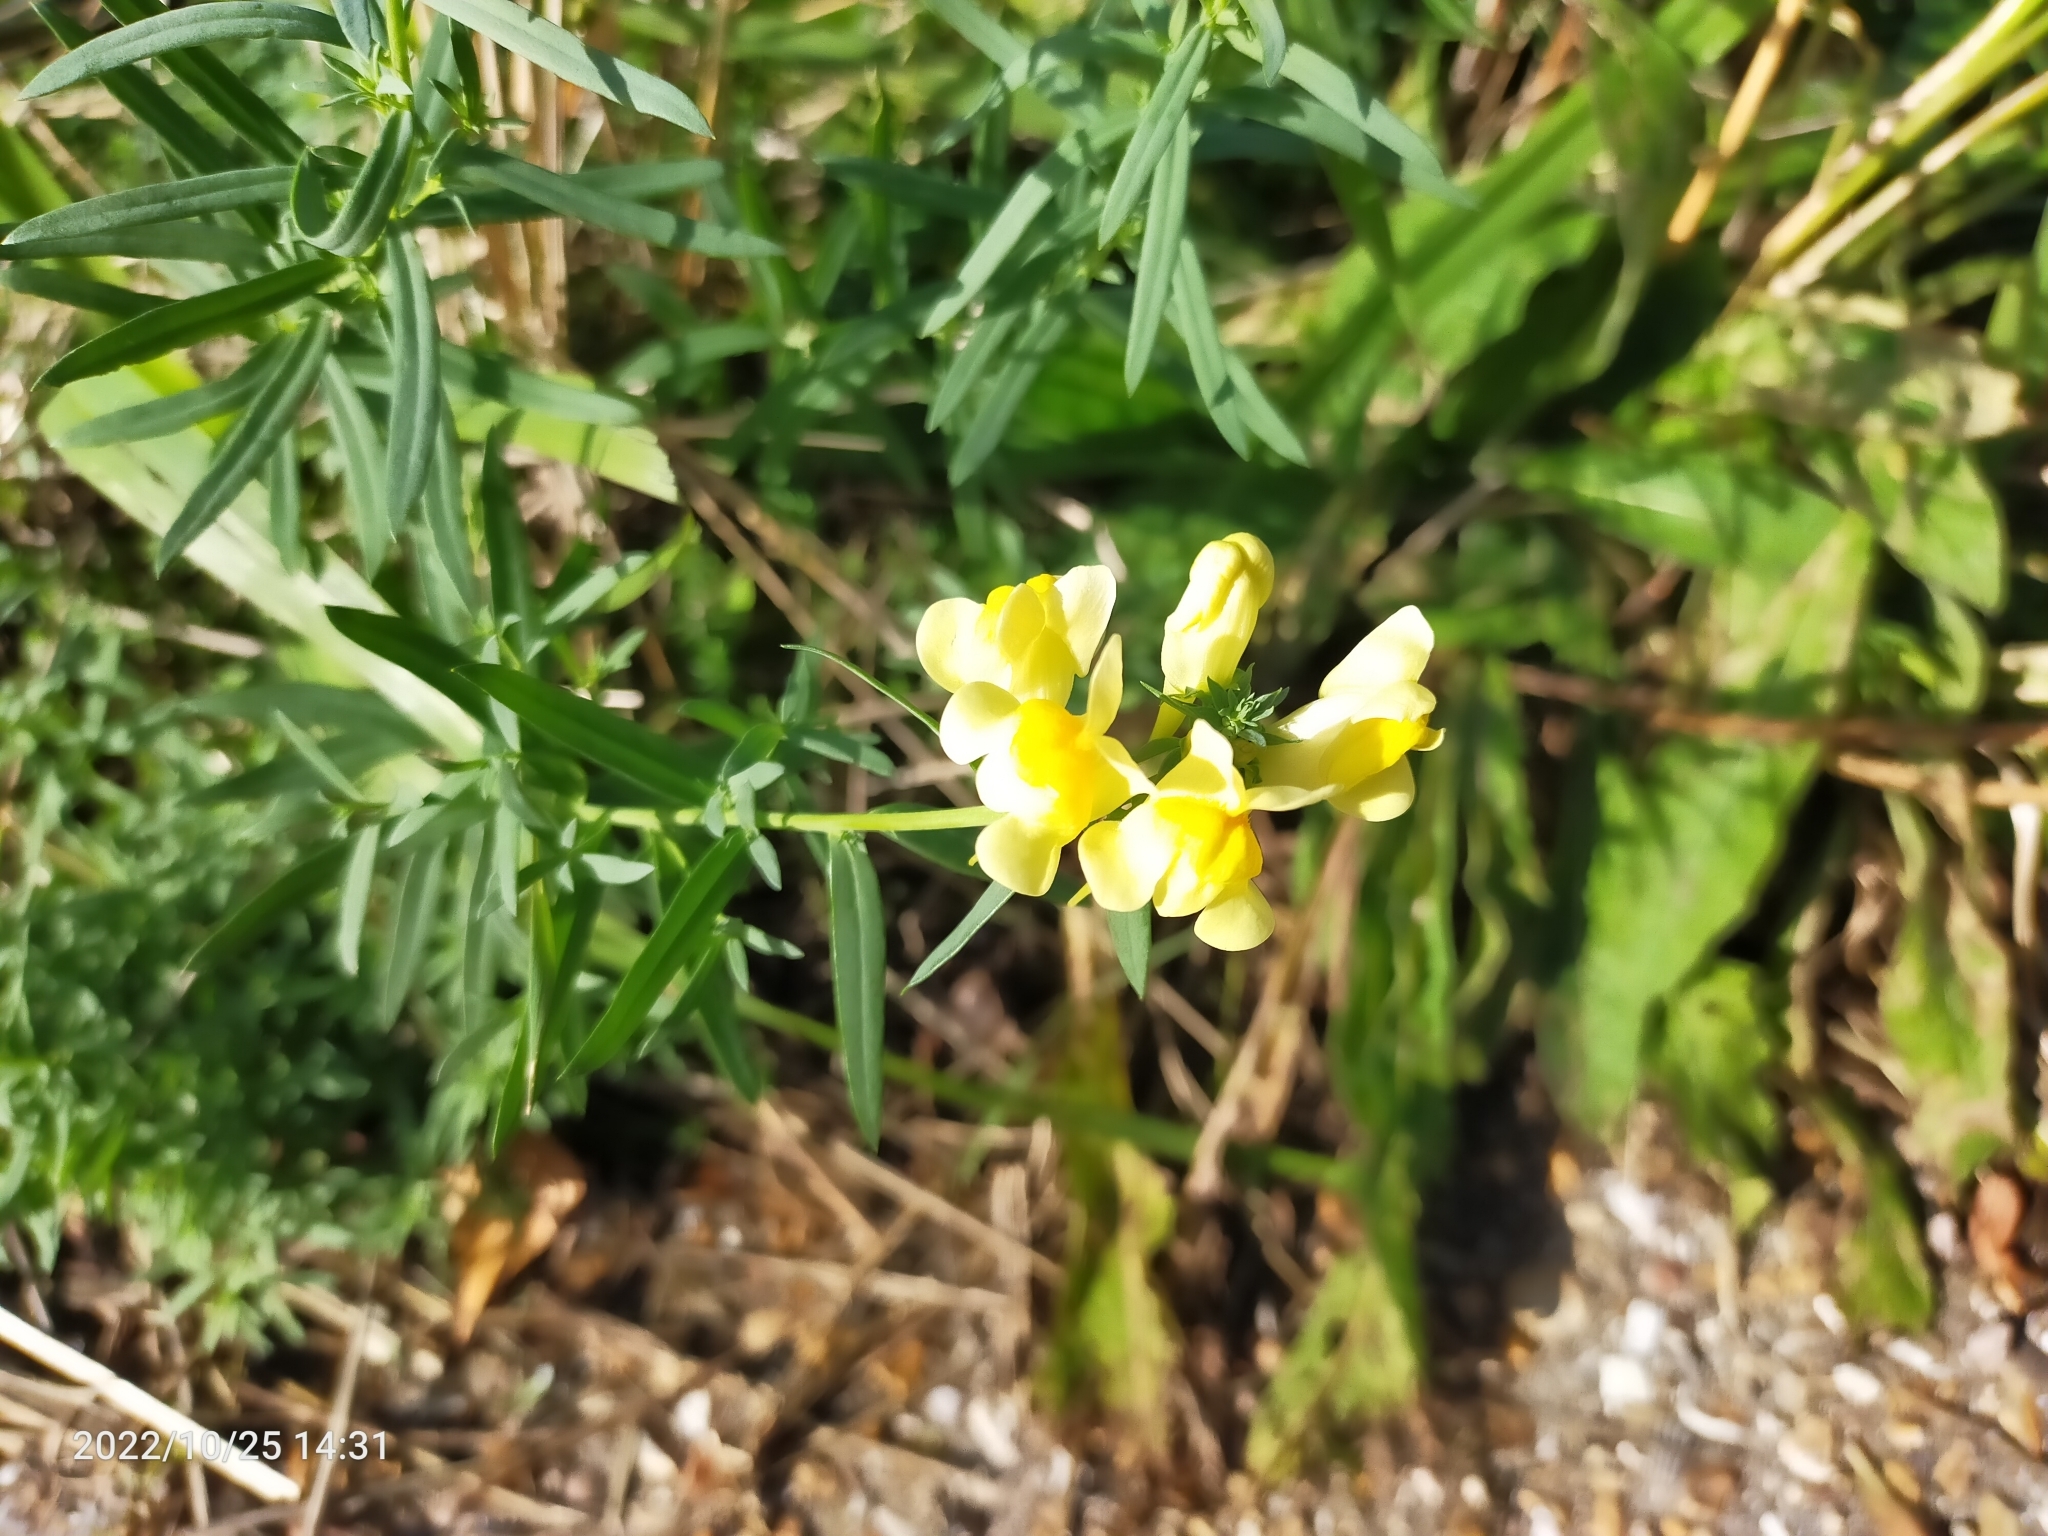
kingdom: Plantae
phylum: Tracheophyta
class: Magnoliopsida
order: Lamiales
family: Plantaginaceae
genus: Linaria
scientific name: Linaria vulgaris
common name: Butter and eggs
